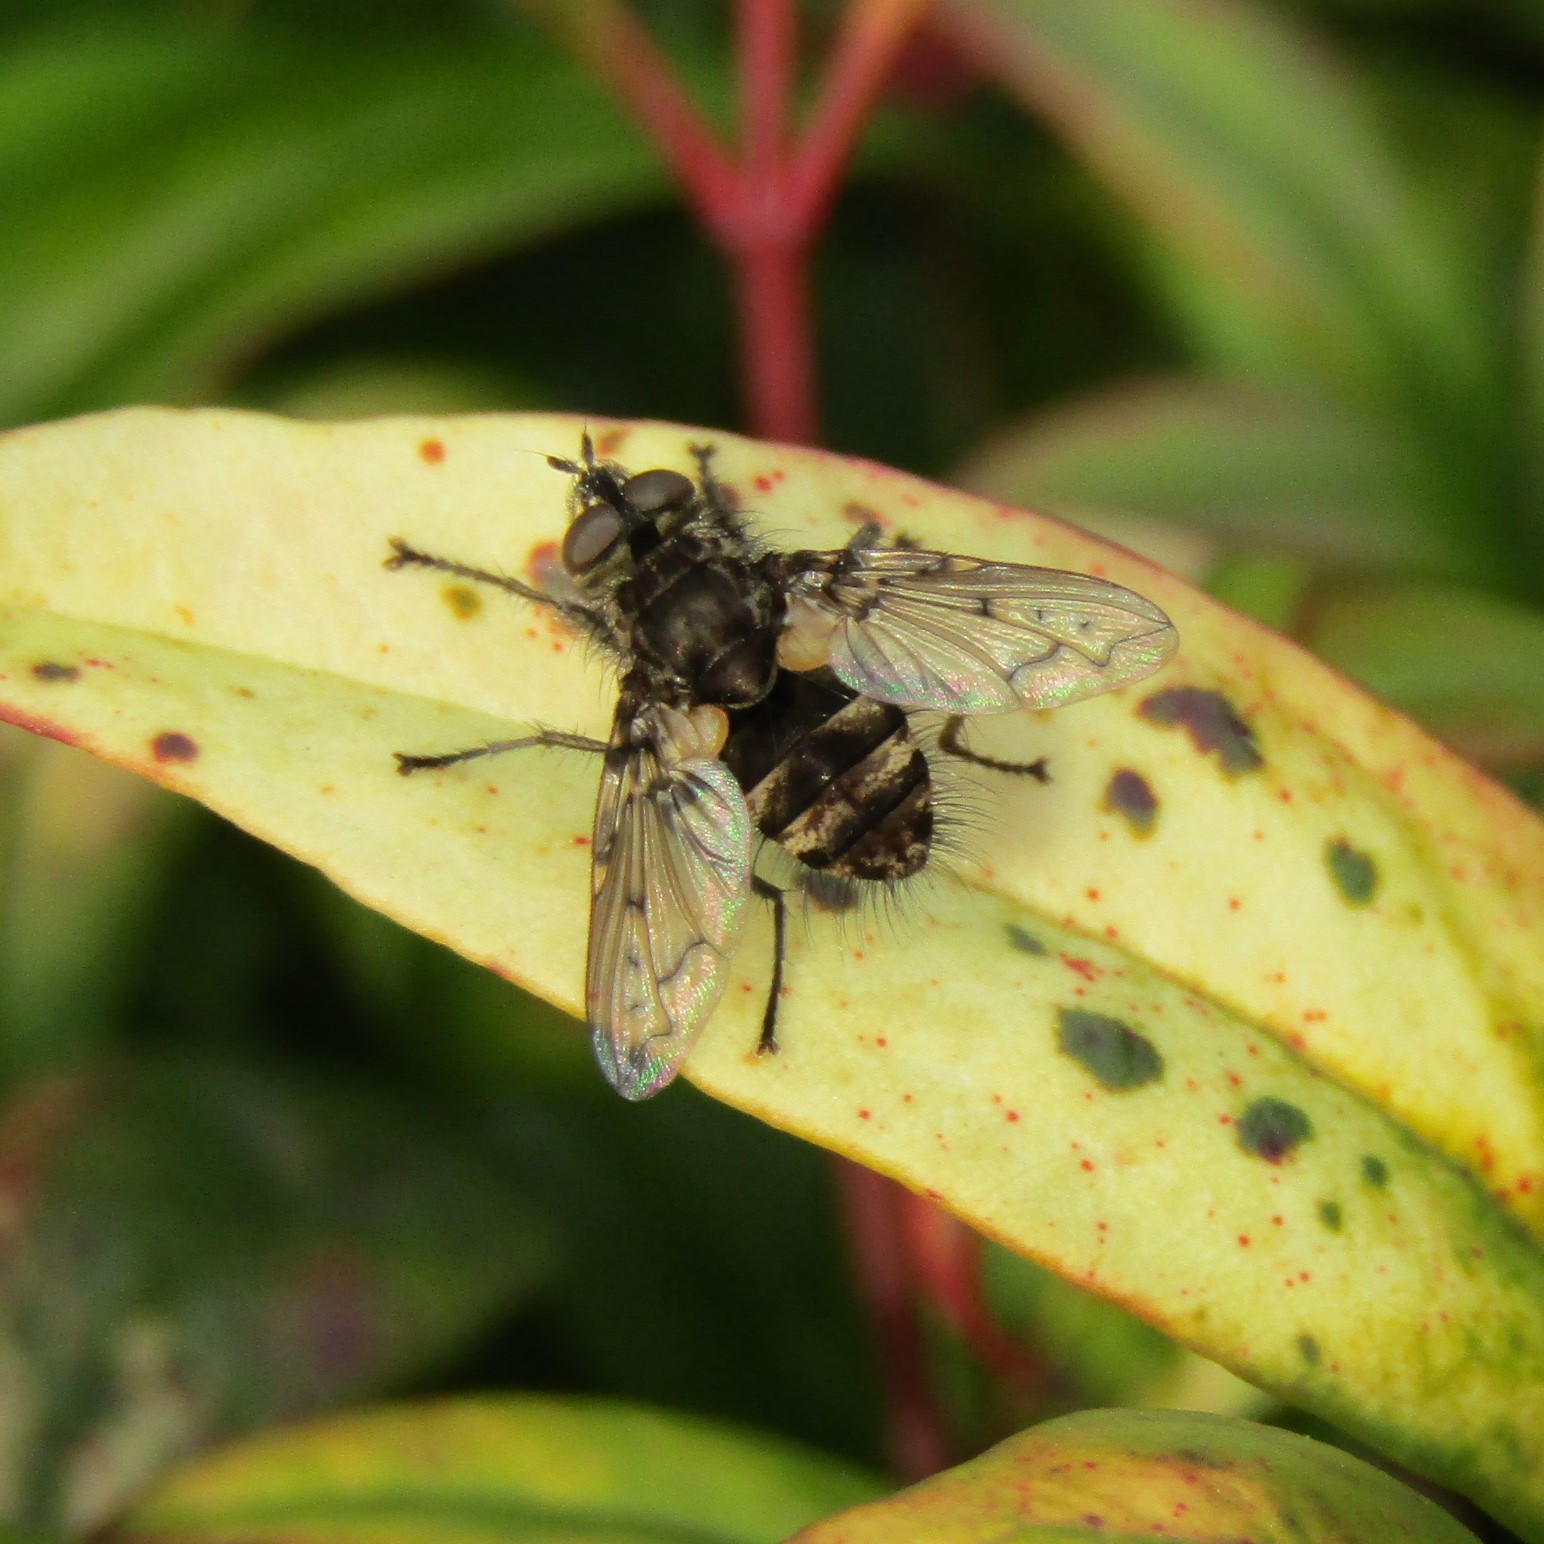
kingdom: Animalia
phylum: Arthropoda
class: Insecta
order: Diptera
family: Tachinidae
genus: Mallochomacquartia
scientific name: Mallochomacquartia vexata
